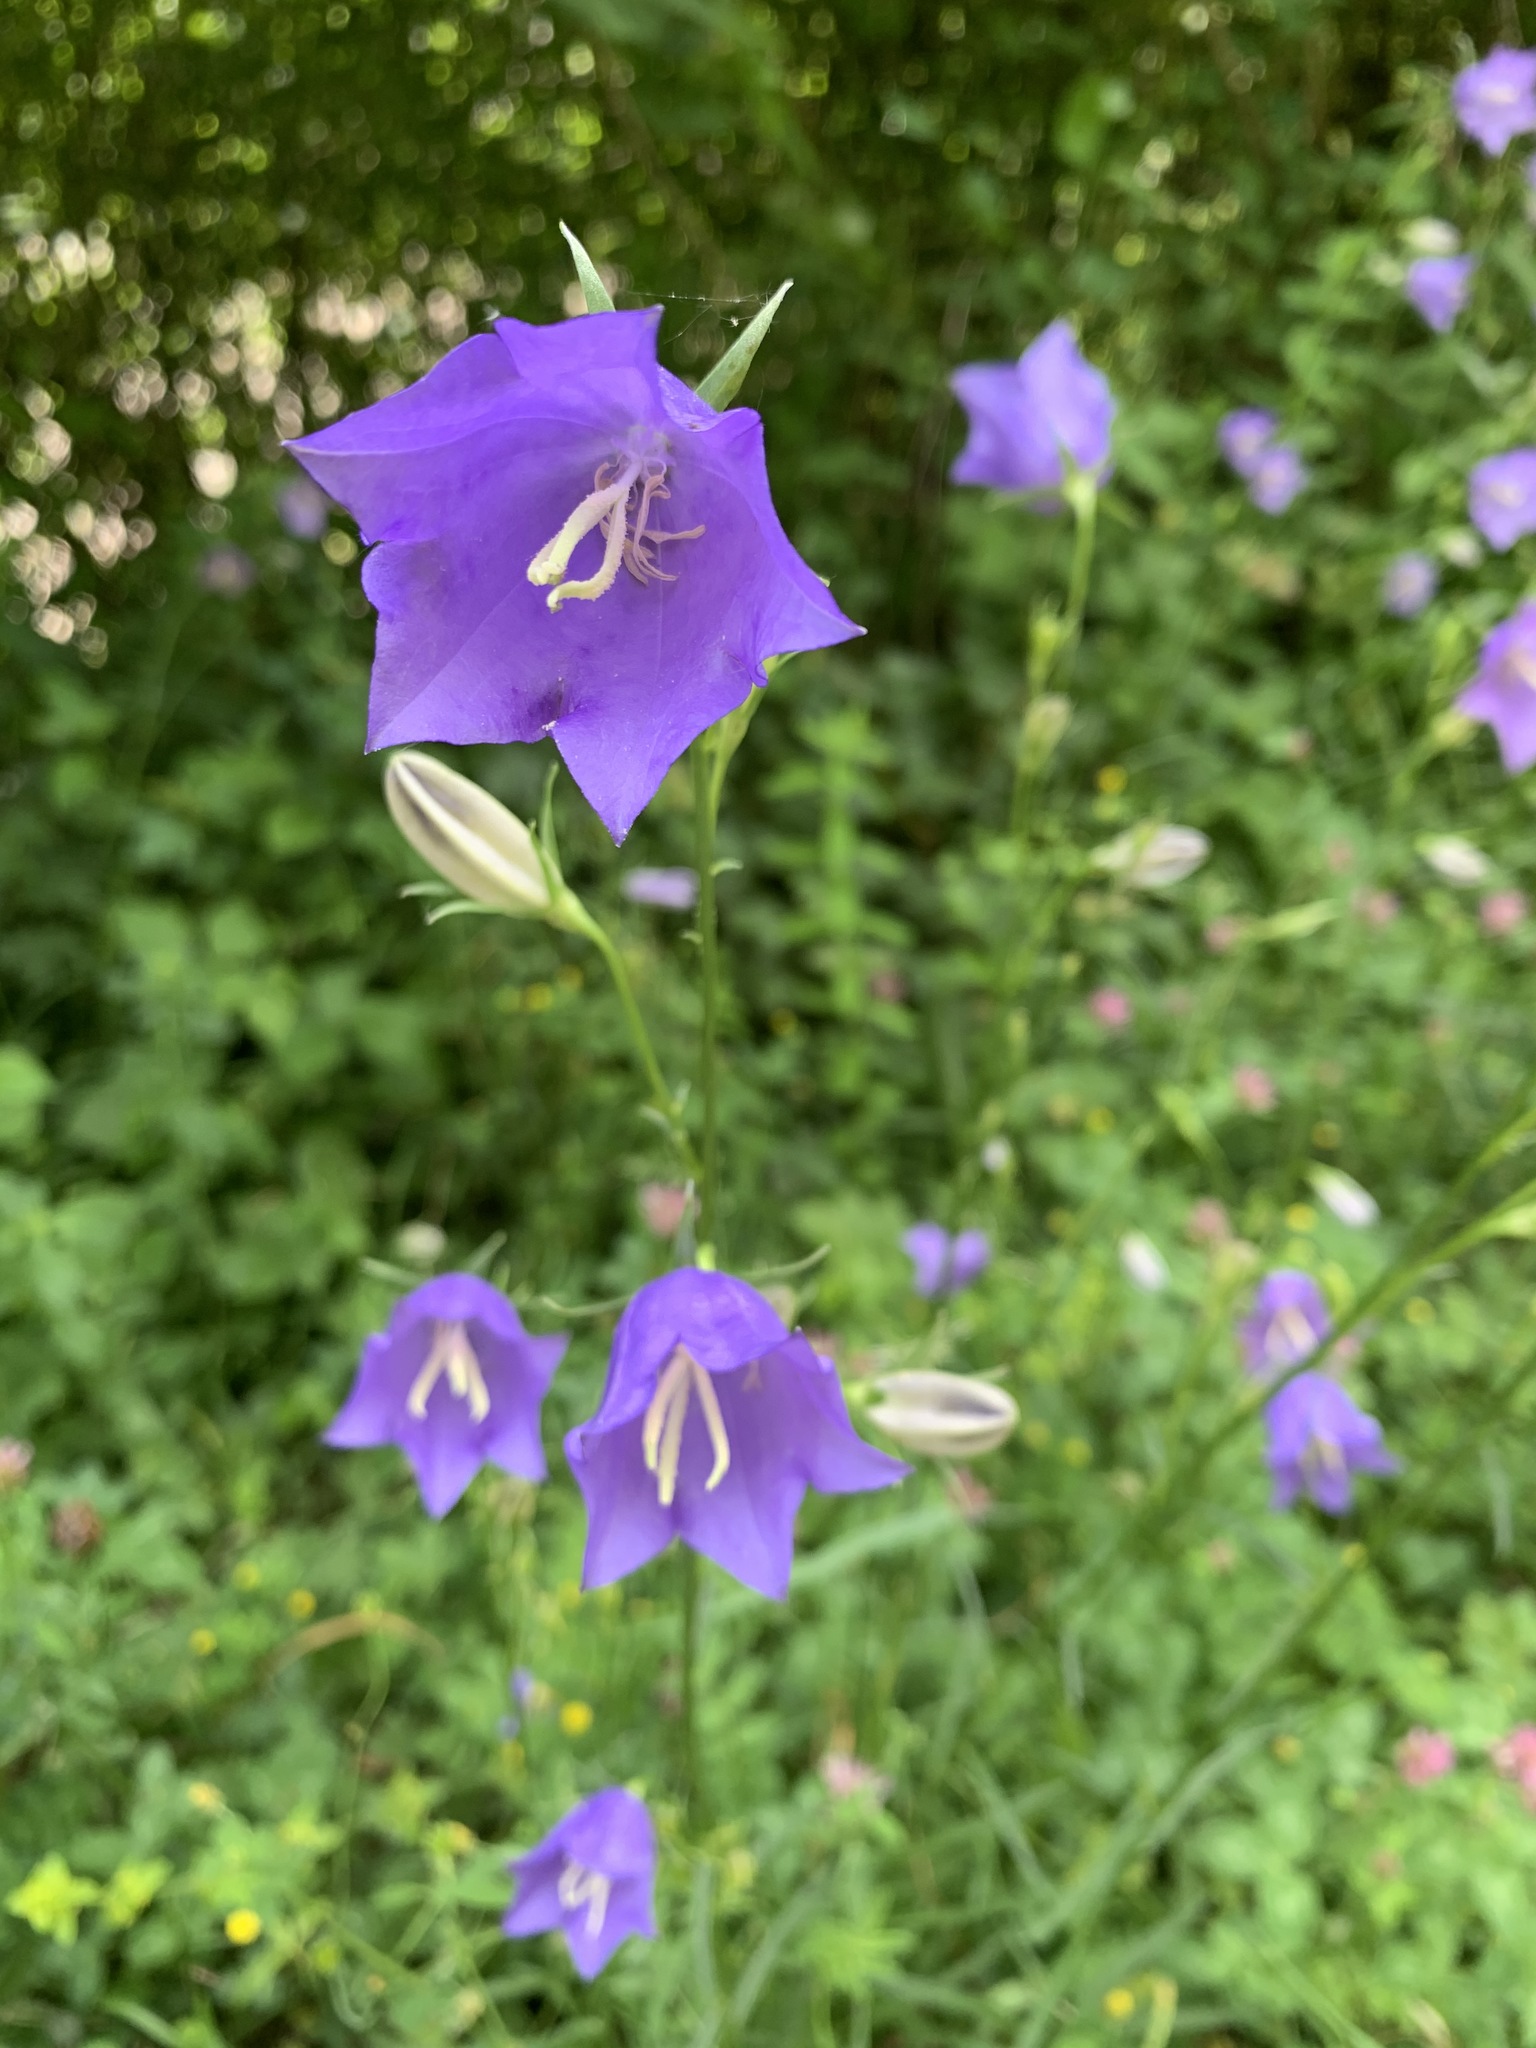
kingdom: Plantae
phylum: Tracheophyta
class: Magnoliopsida
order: Asterales
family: Campanulaceae
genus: Campanula
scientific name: Campanula persicifolia
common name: Peach-leaved bellflower
